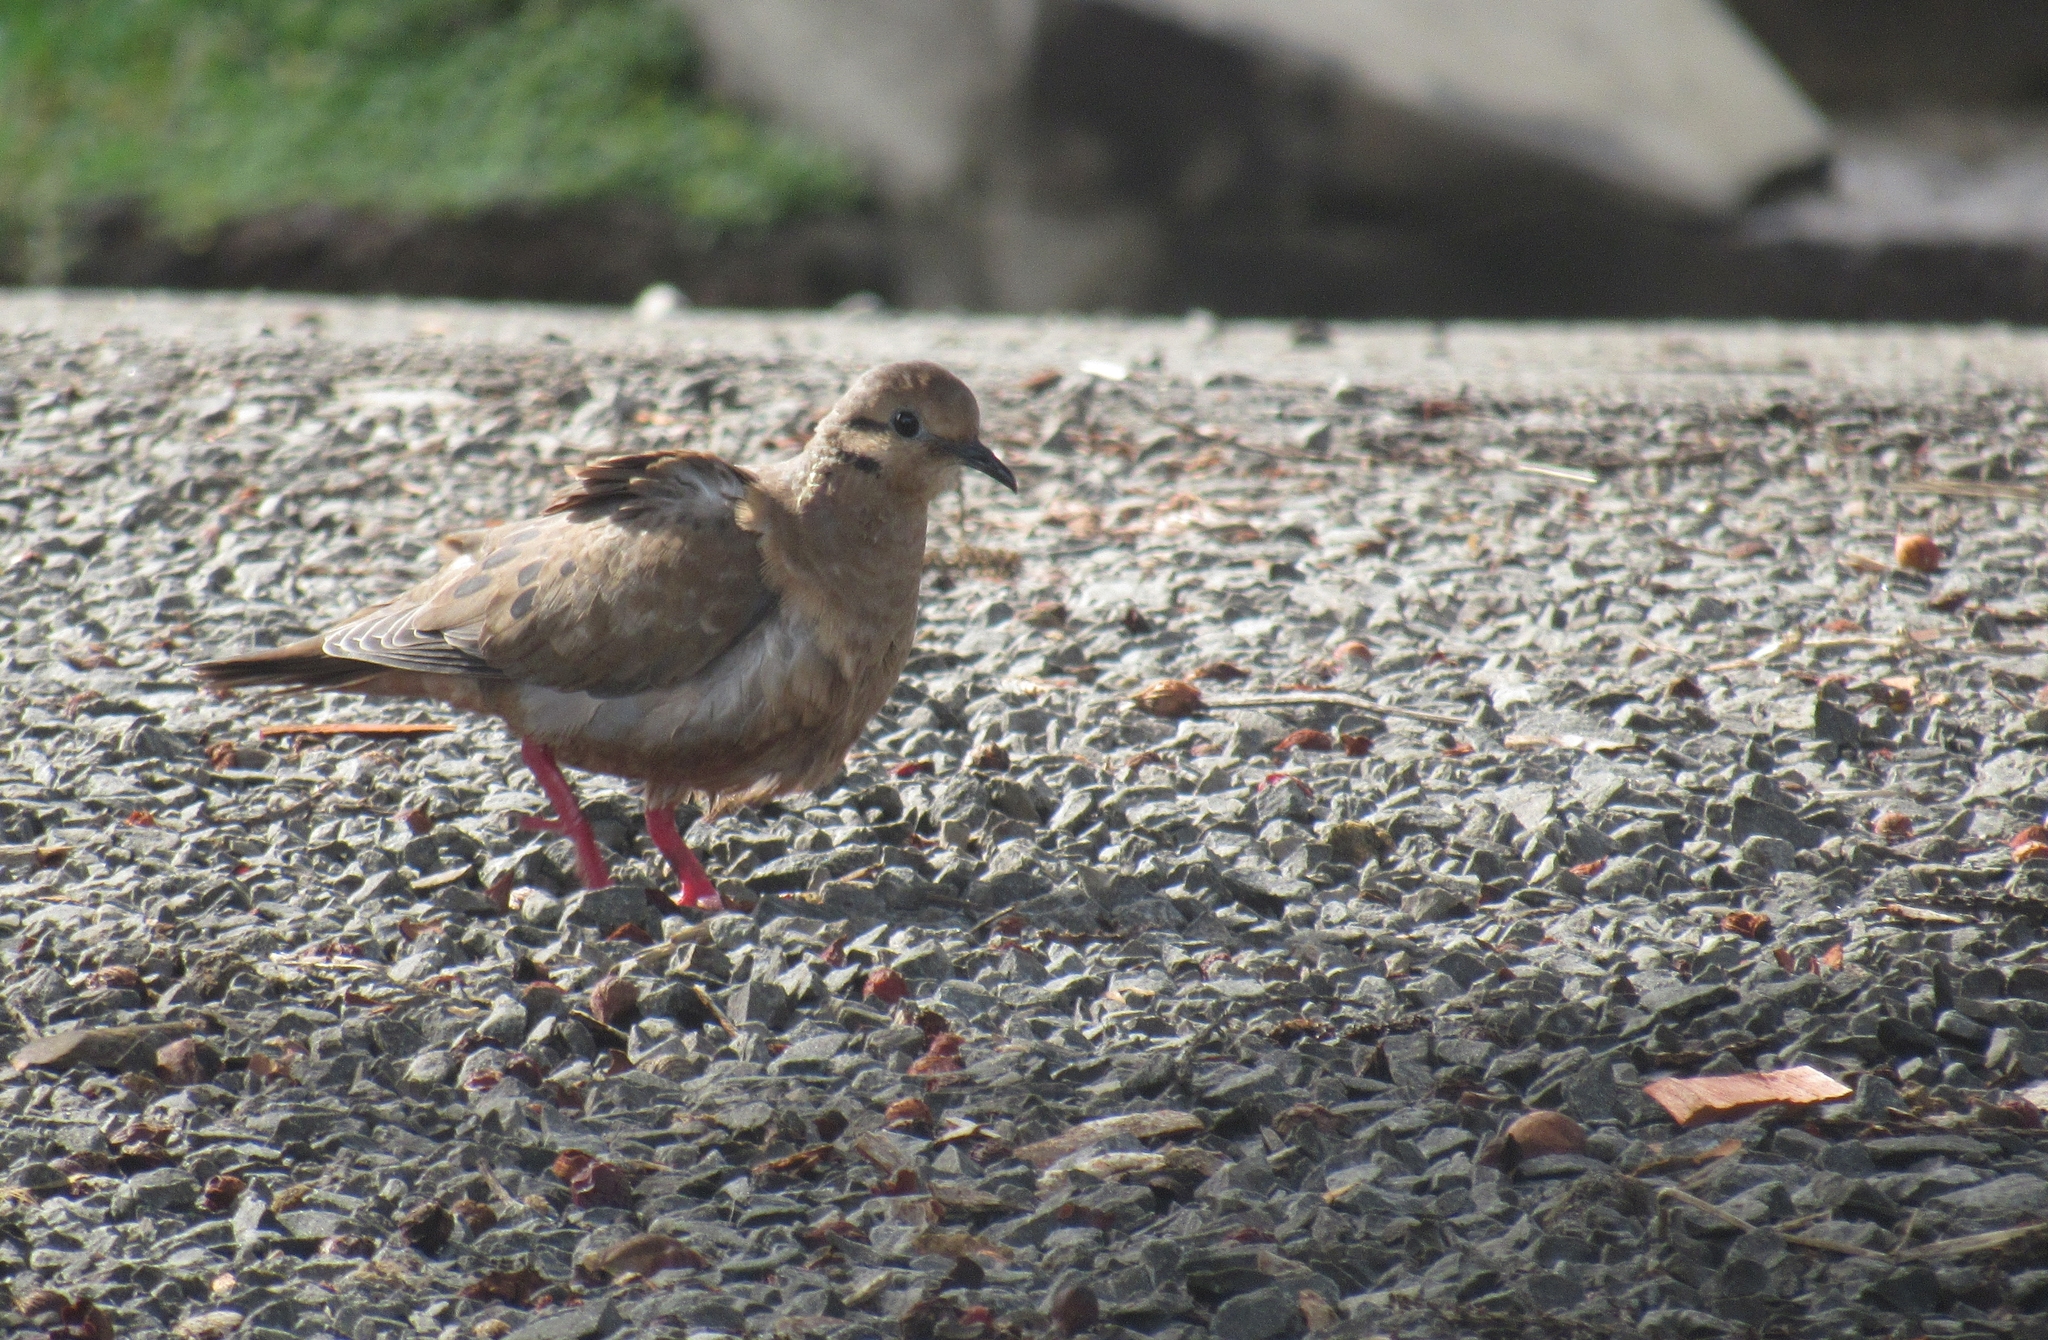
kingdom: Animalia
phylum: Chordata
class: Aves
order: Columbiformes
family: Columbidae
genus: Zenaida
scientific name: Zenaida auriculata
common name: Eared dove
